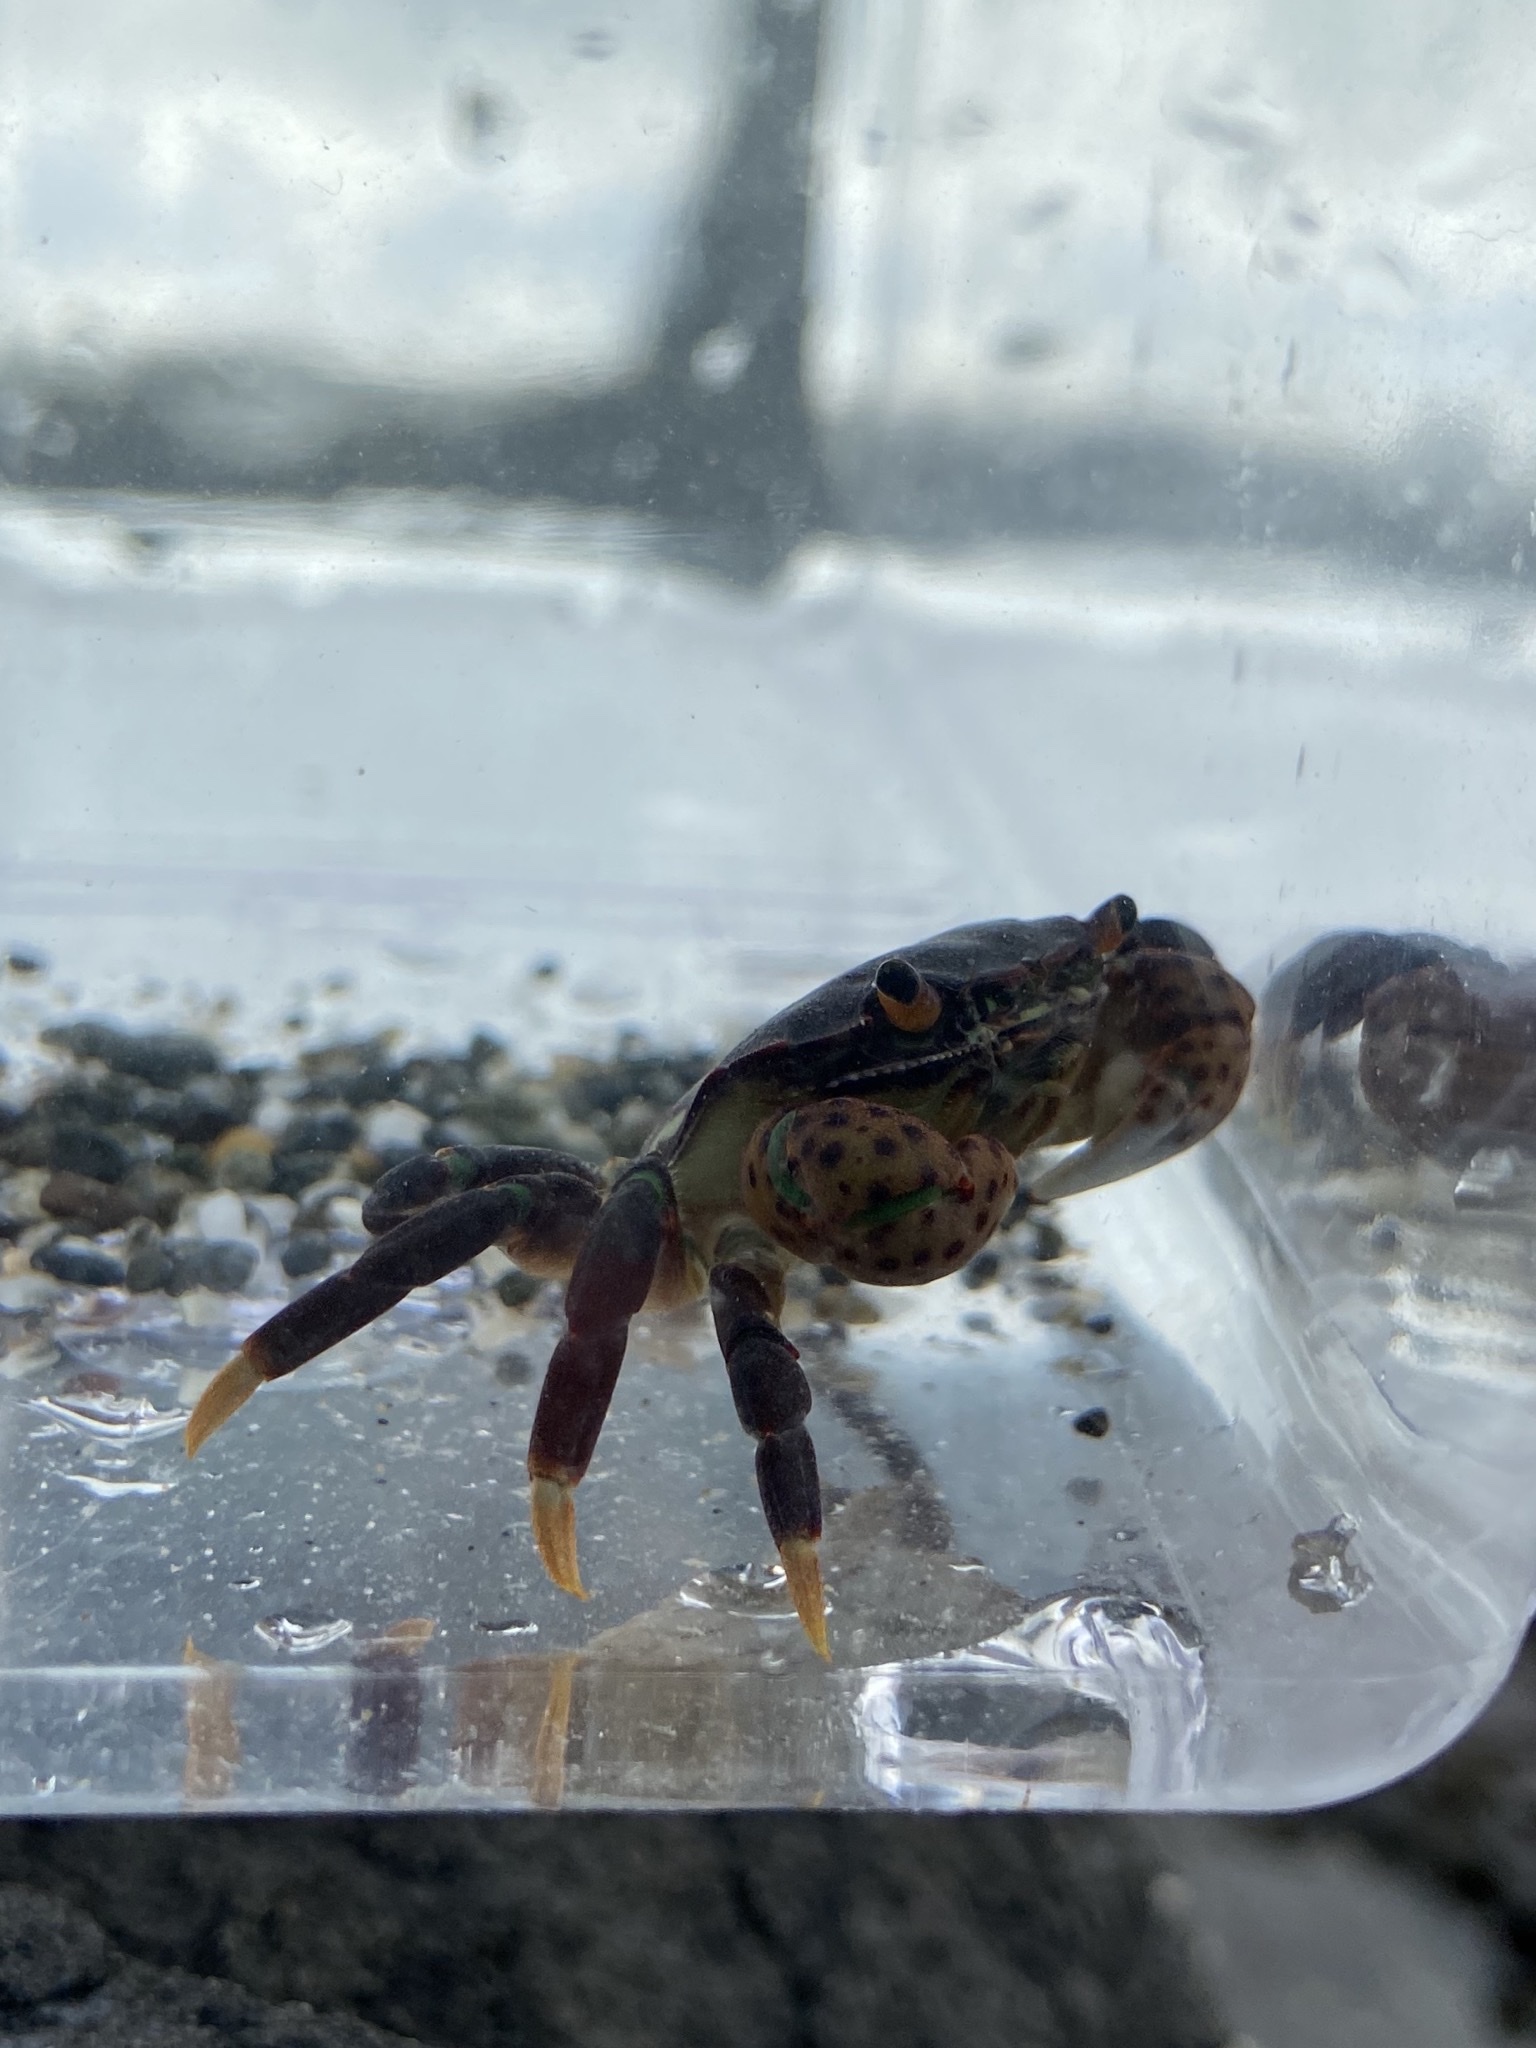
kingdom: Animalia
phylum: Arthropoda
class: Malacostraca
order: Decapoda
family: Varunidae
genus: Hemigrapsus
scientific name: Hemigrapsus nudus
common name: Purple shore crab
